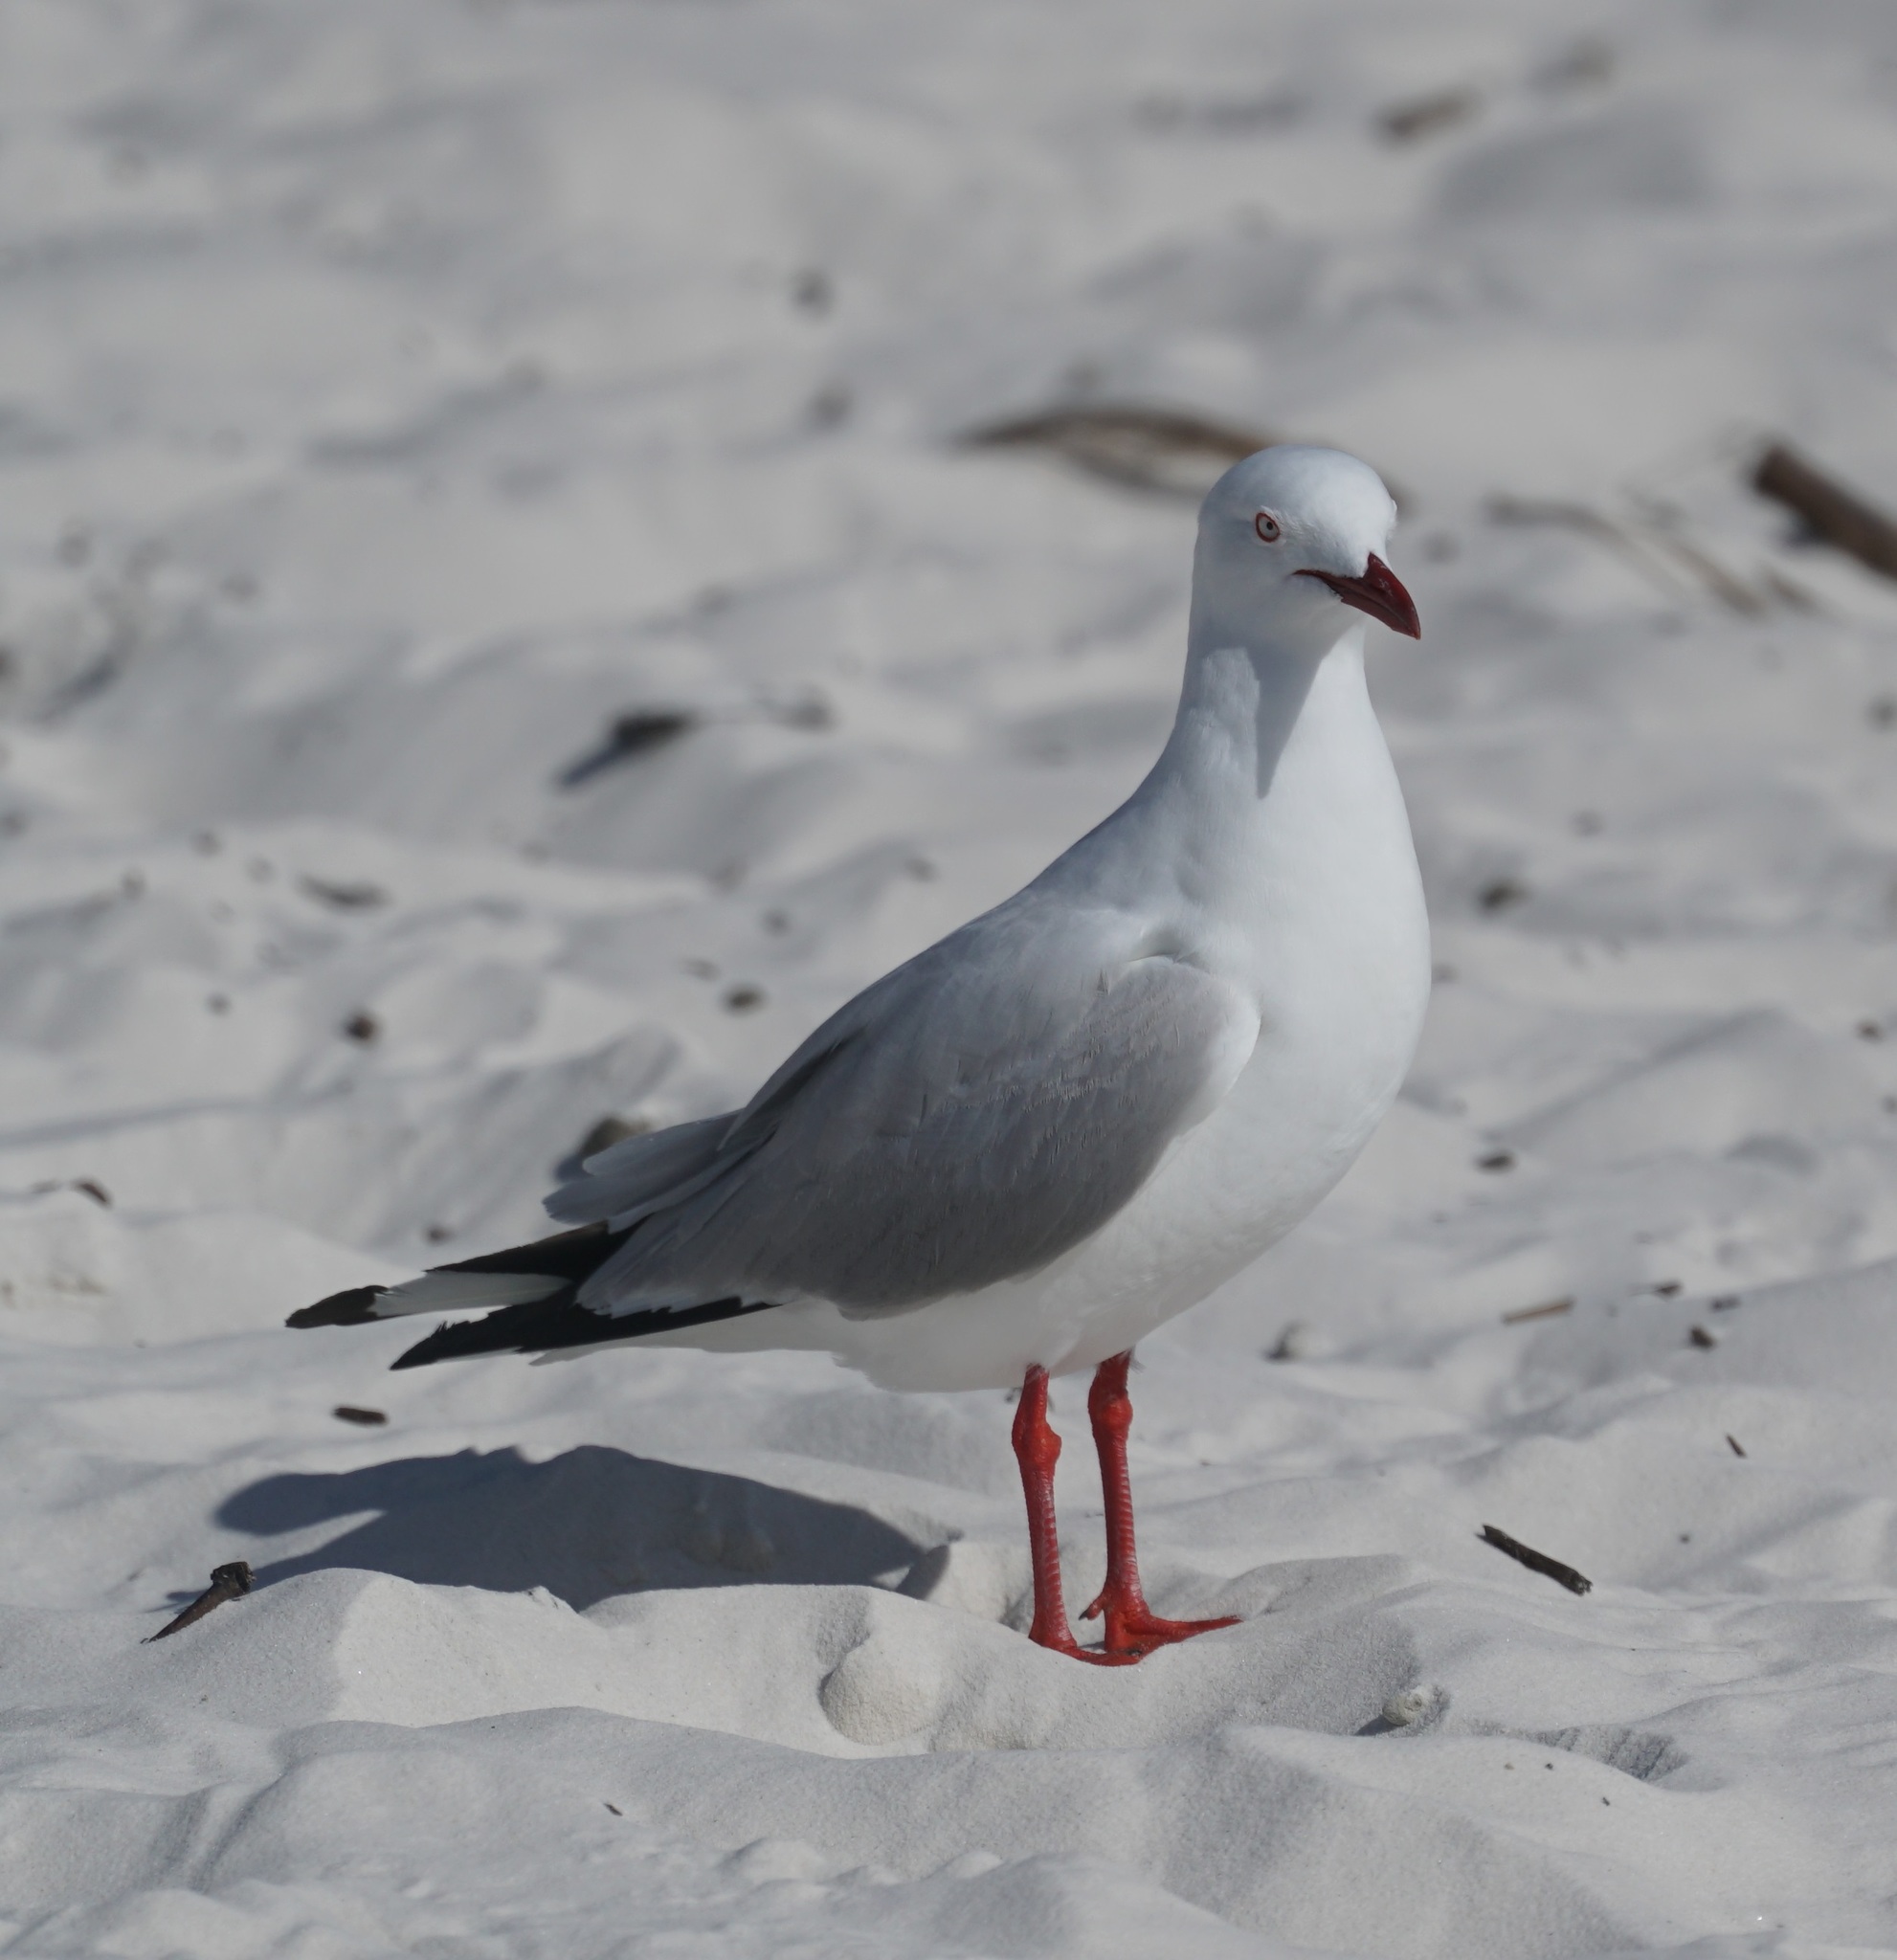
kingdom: Animalia
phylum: Chordata
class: Aves
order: Charadriiformes
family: Laridae
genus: Chroicocephalus
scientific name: Chroicocephalus novaehollandiae
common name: Silver gull
